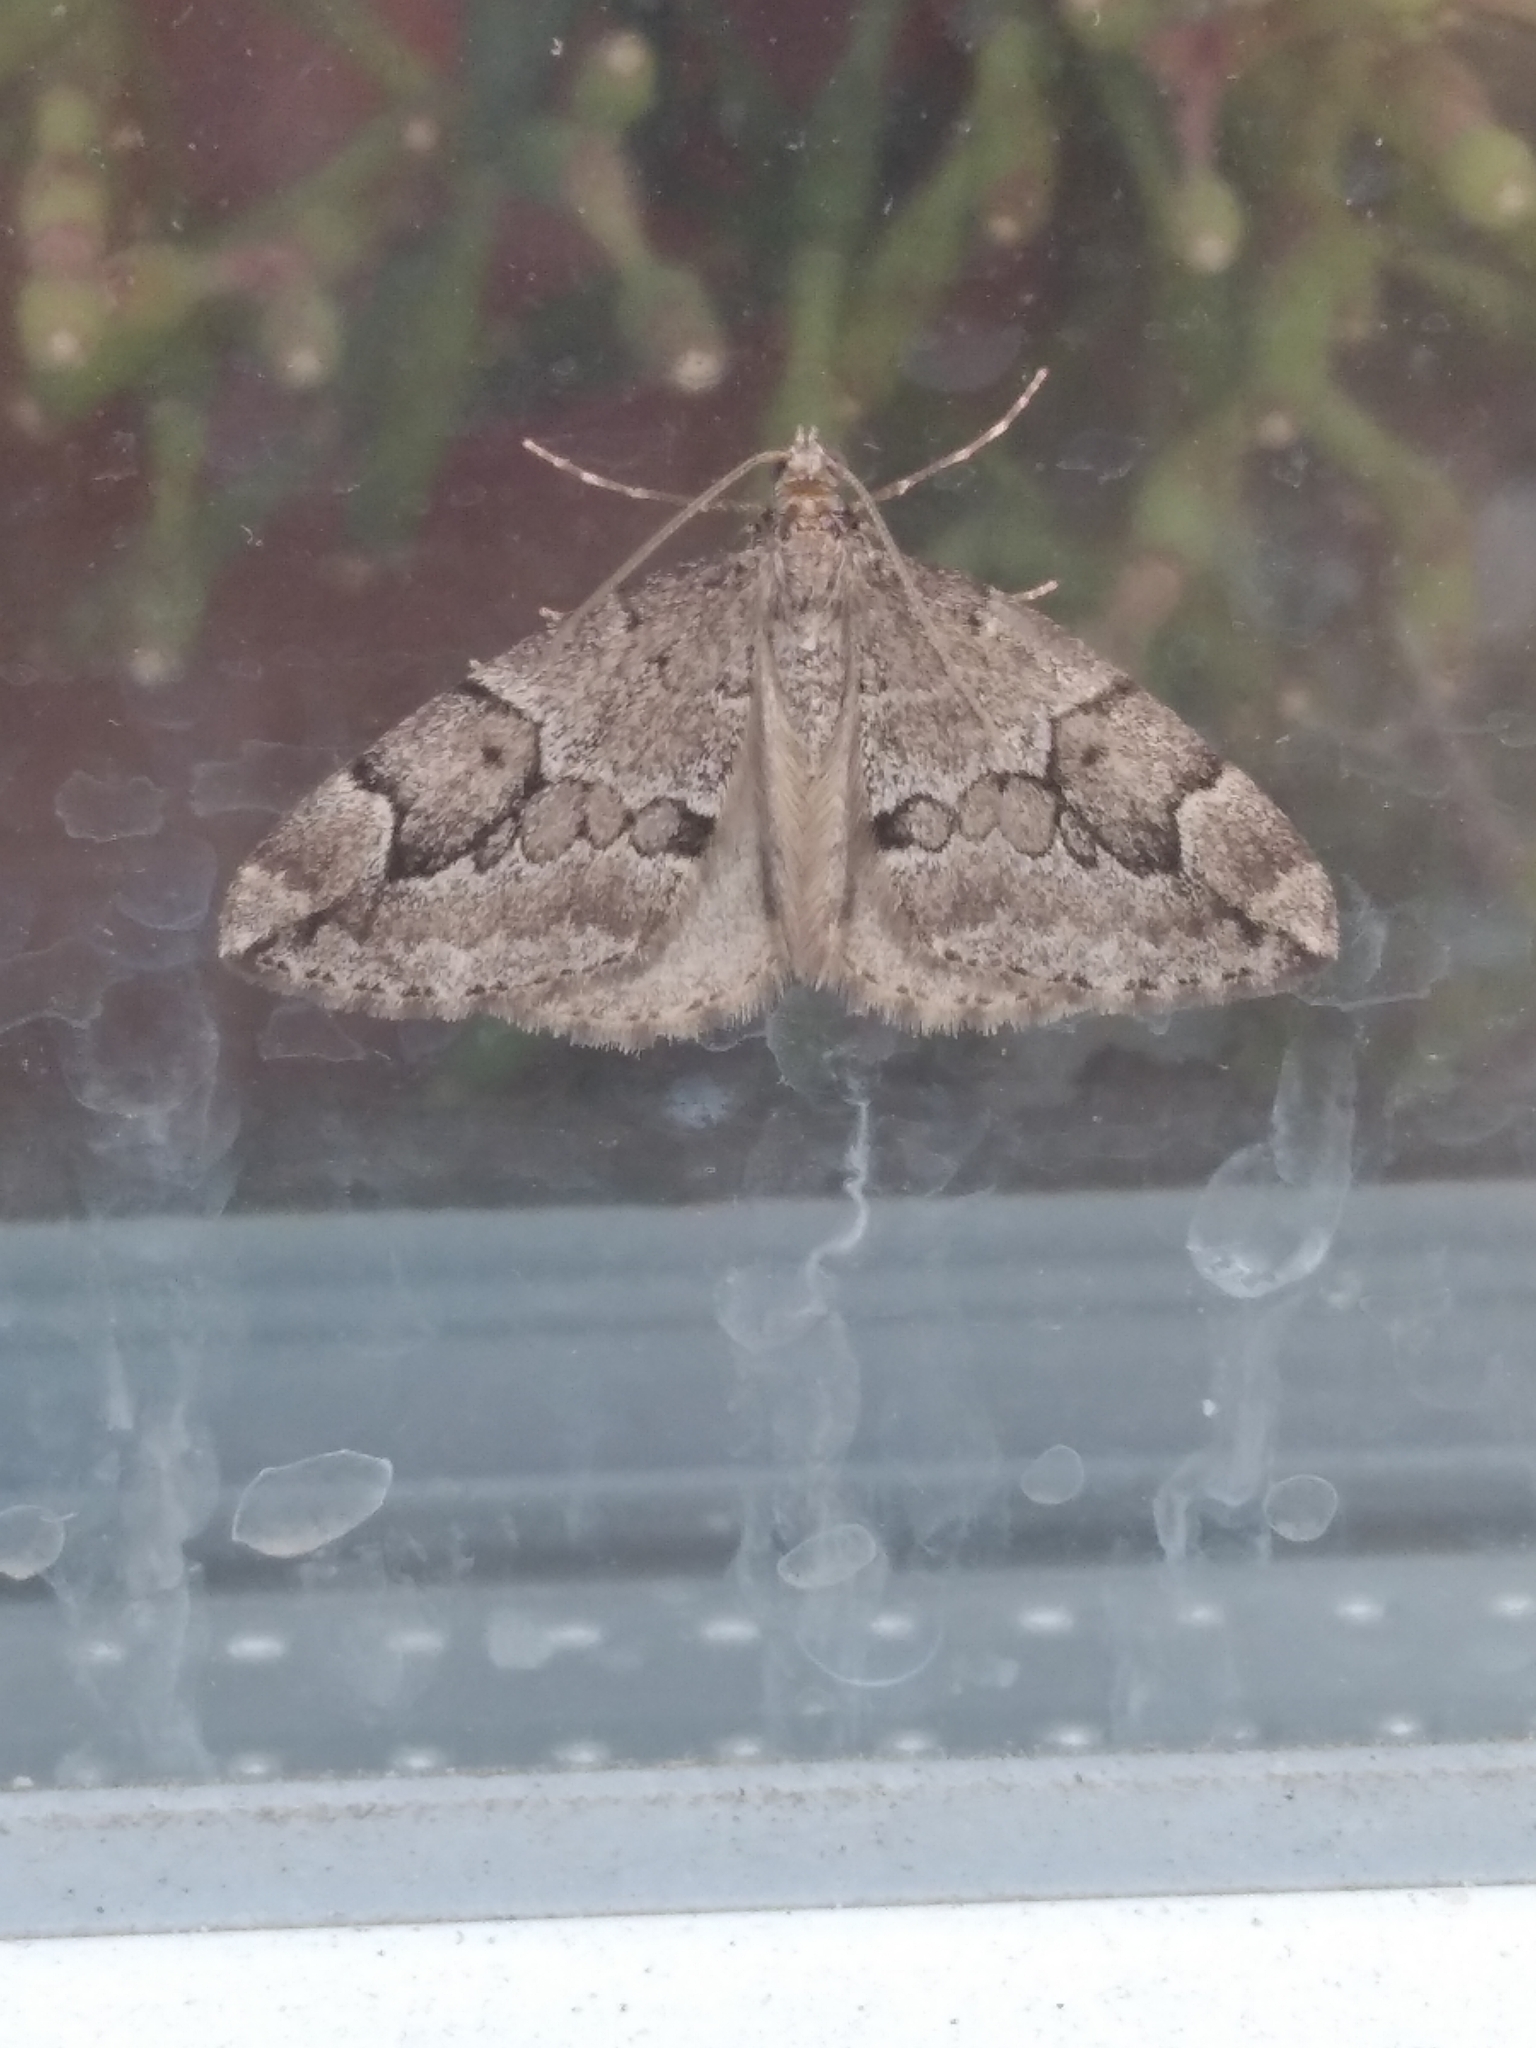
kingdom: Animalia
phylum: Arthropoda
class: Insecta
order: Lepidoptera
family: Geometridae
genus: Thera
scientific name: Thera juniperata
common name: Juniper carpet
